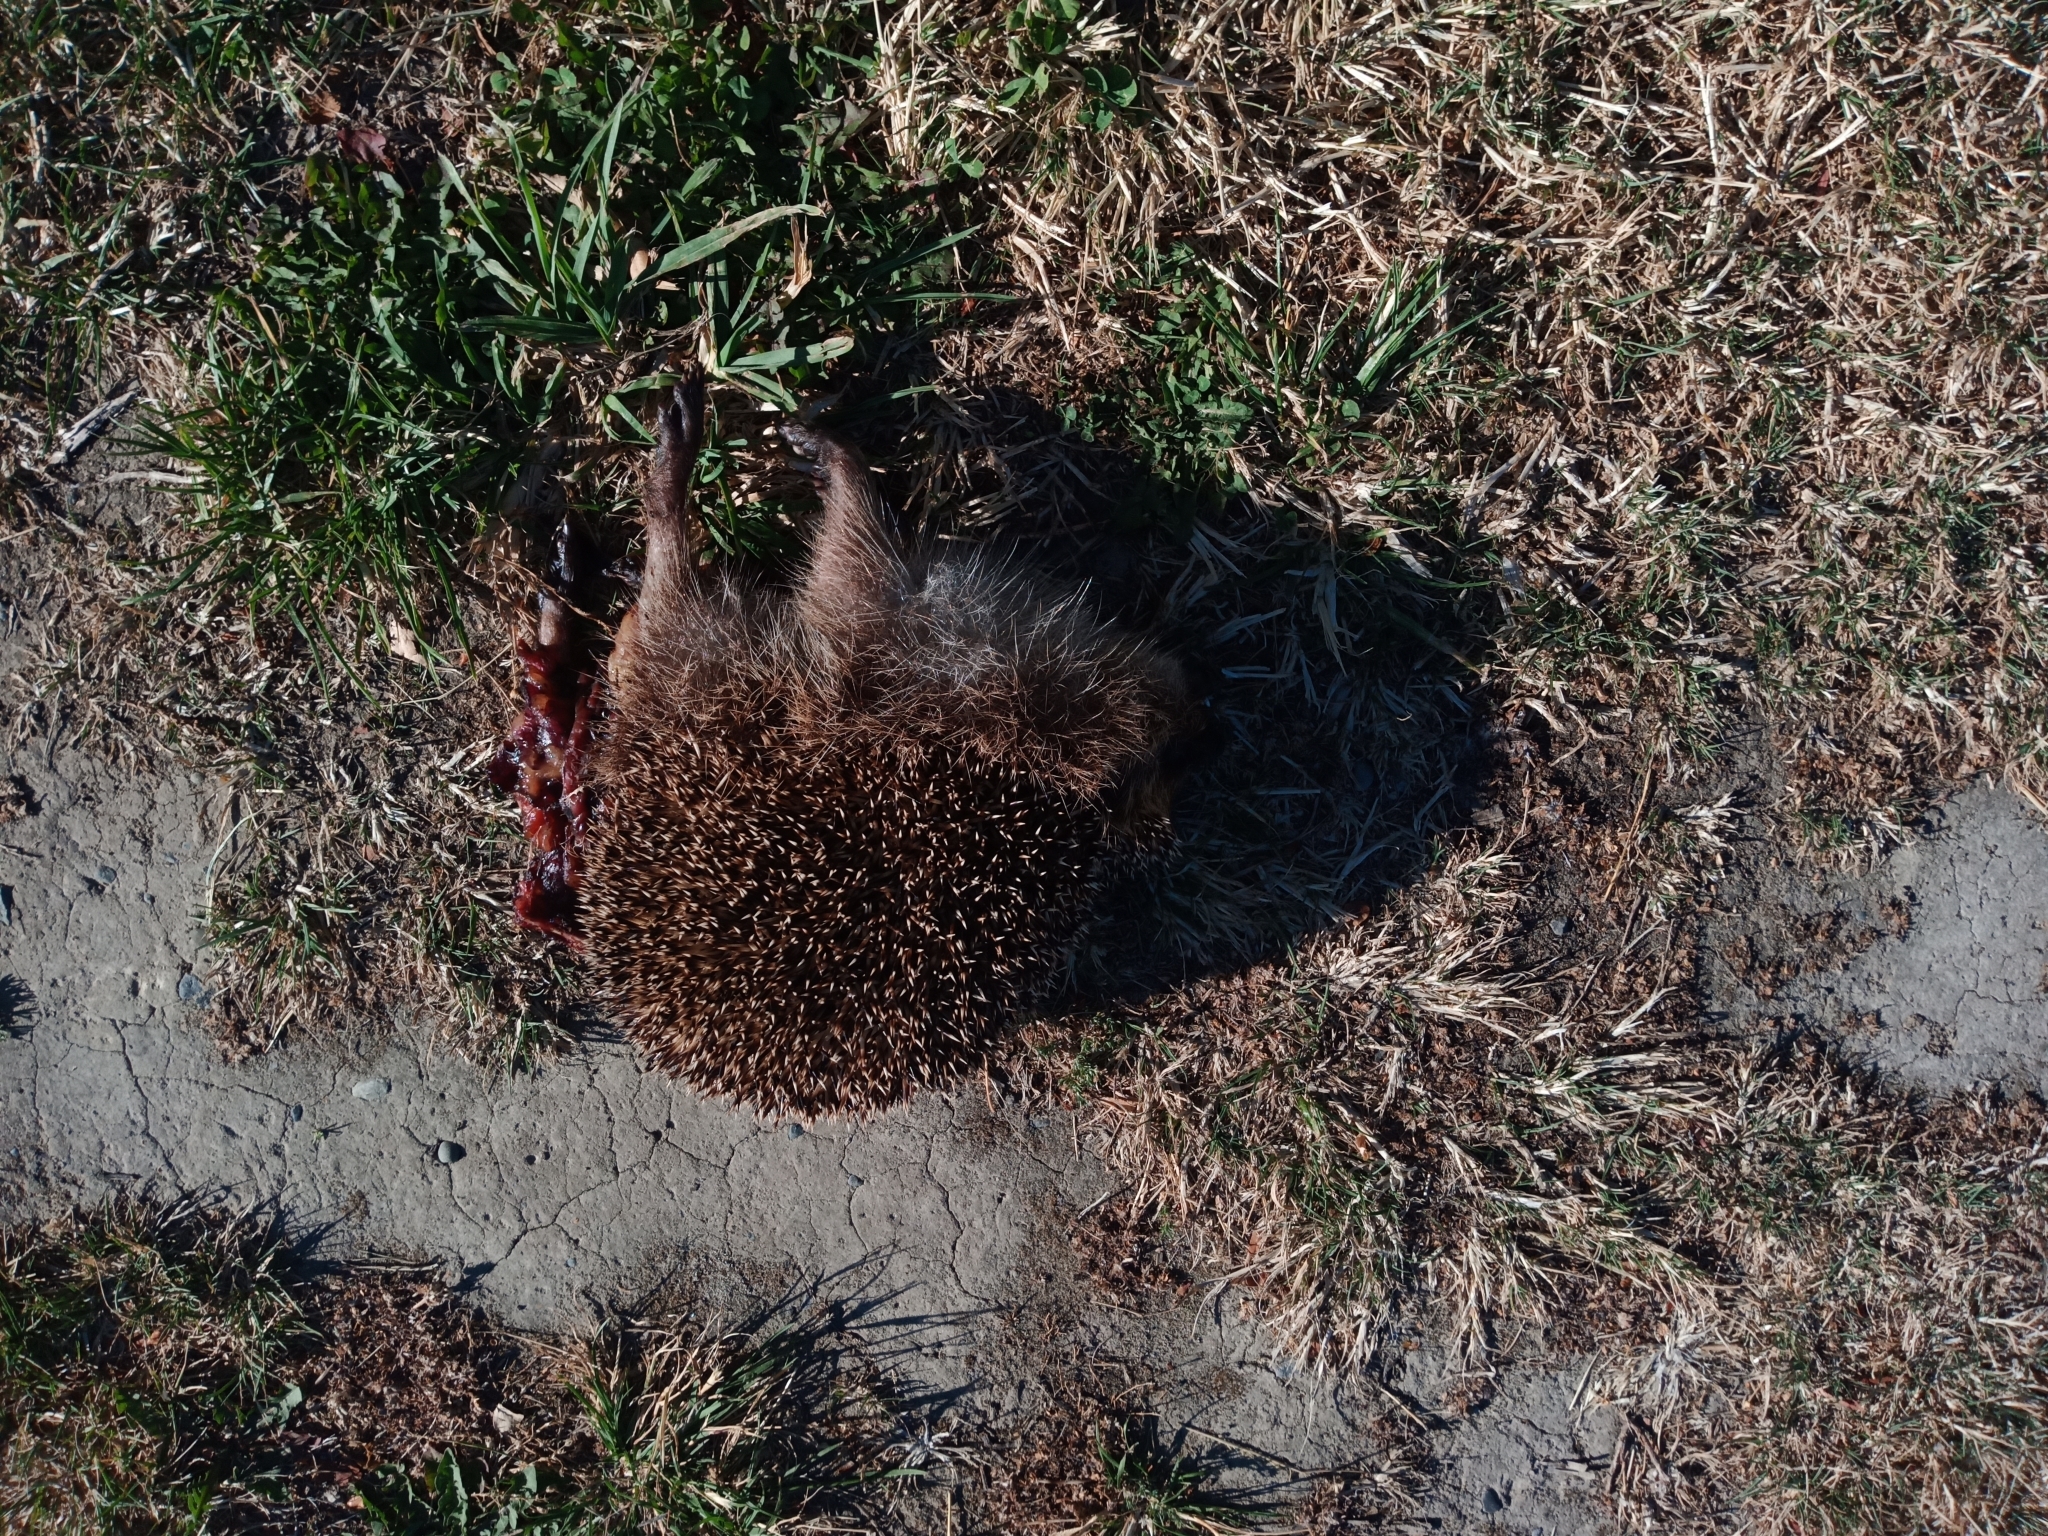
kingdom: Animalia
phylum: Chordata
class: Mammalia
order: Erinaceomorpha
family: Erinaceidae
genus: Erinaceus
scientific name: Erinaceus europaeus
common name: West european hedgehog
